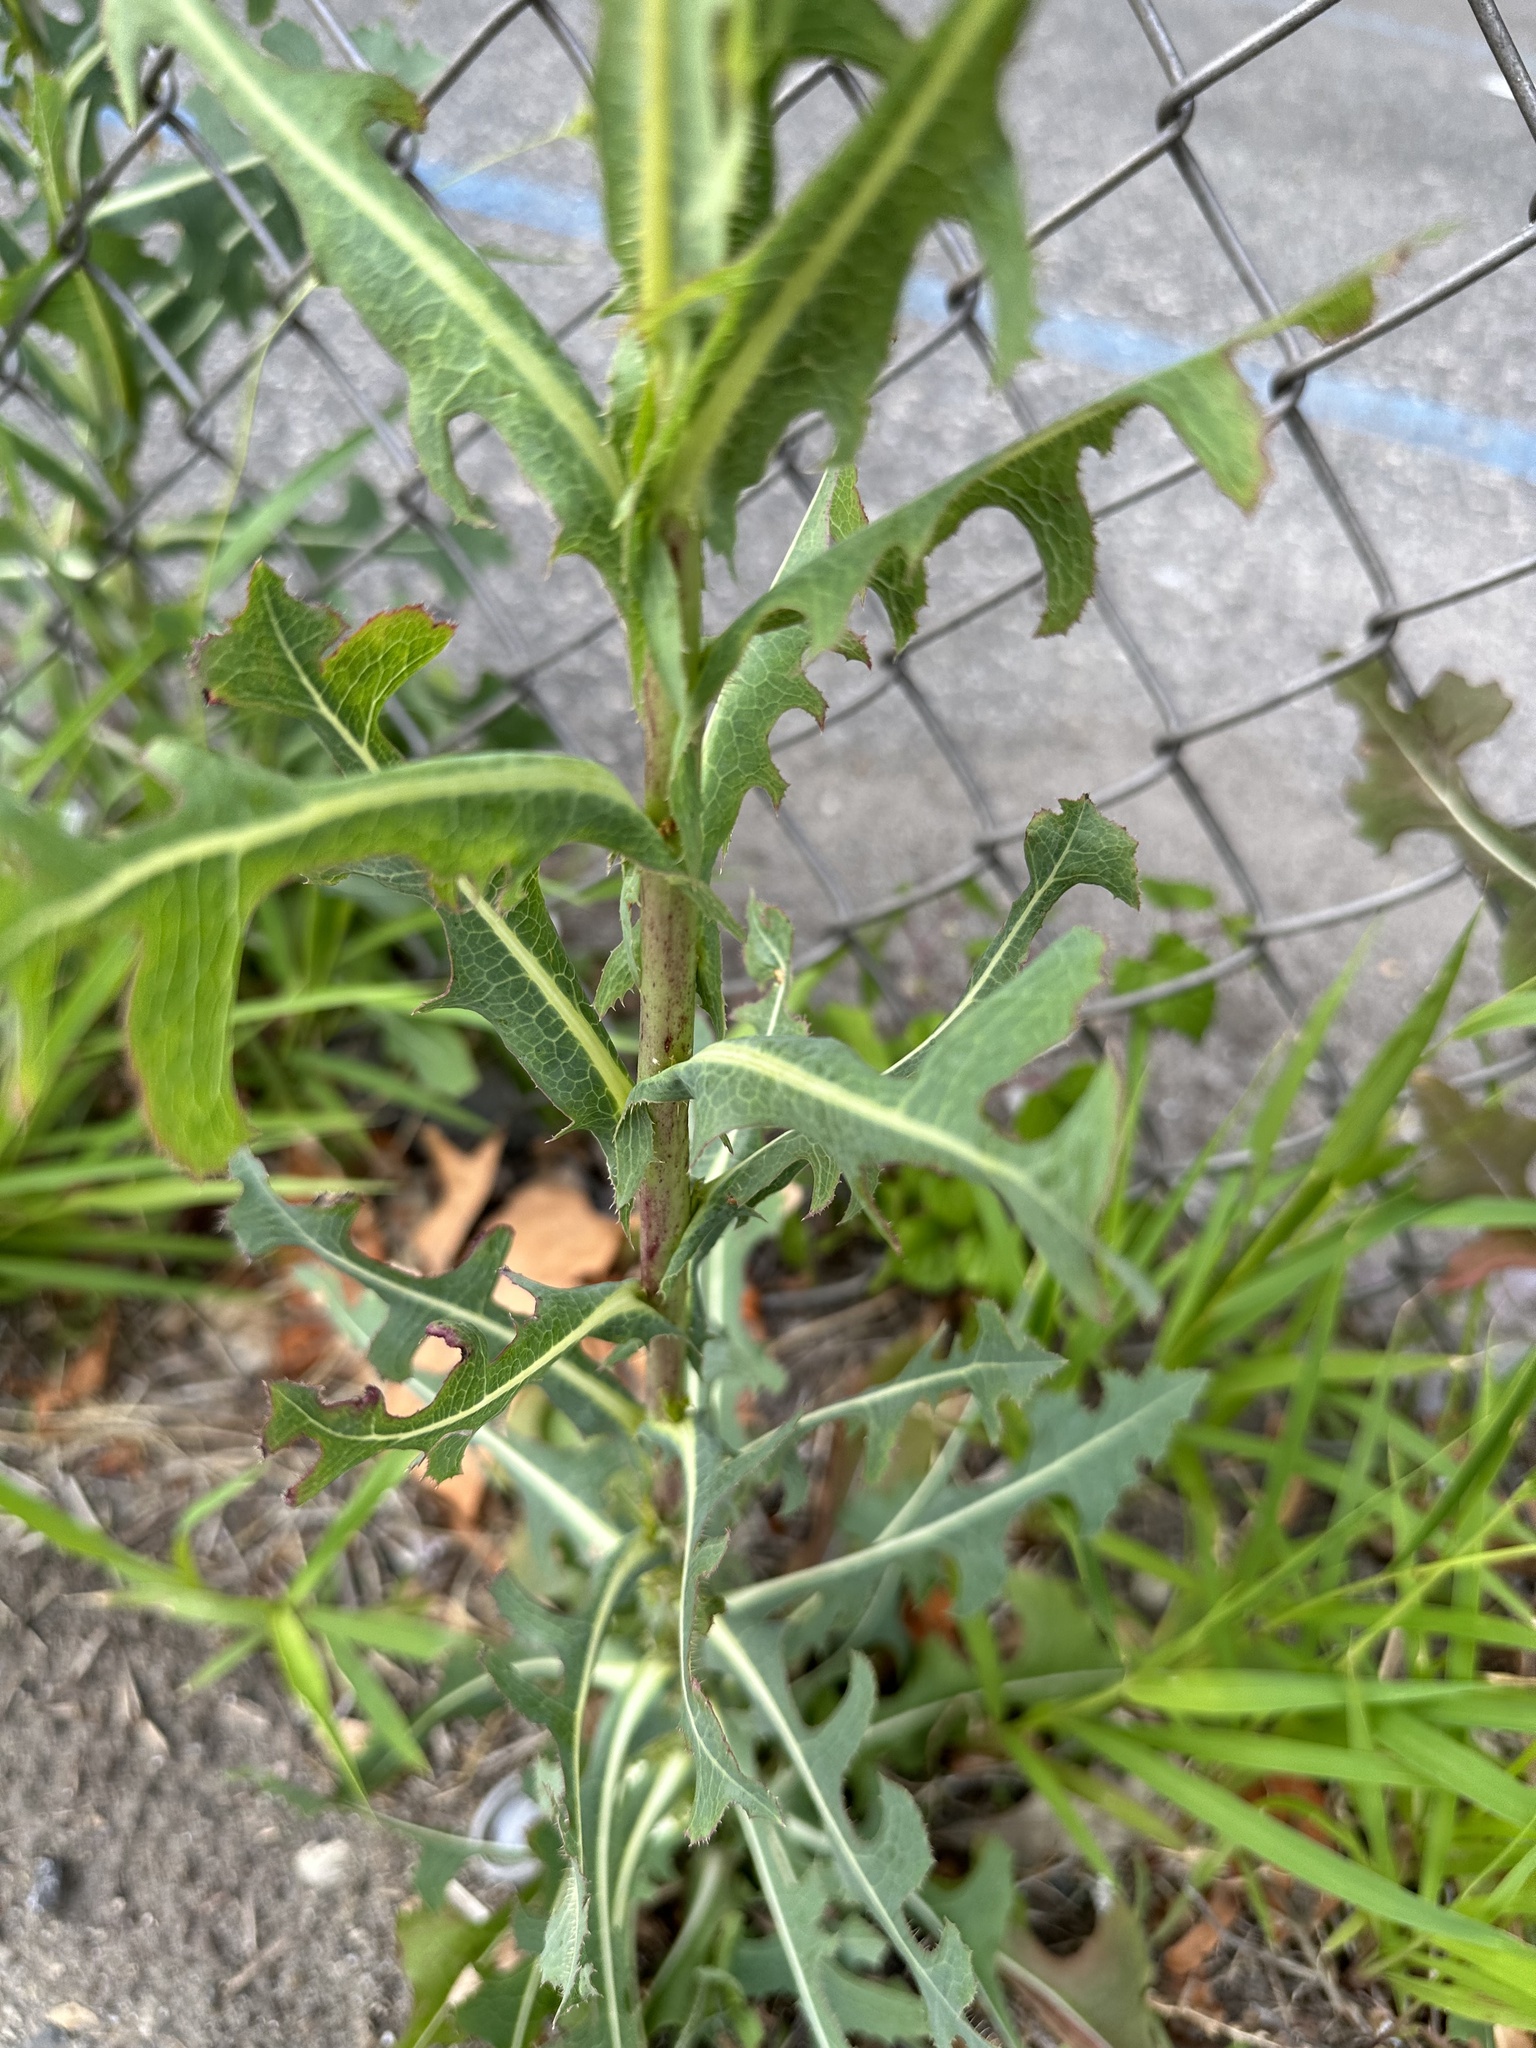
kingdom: Plantae
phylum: Tracheophyta
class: Magnoliopsida
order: Asterales
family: Asteraceae
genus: Lactuca
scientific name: Lactuca serriola
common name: Prickly lettuce
